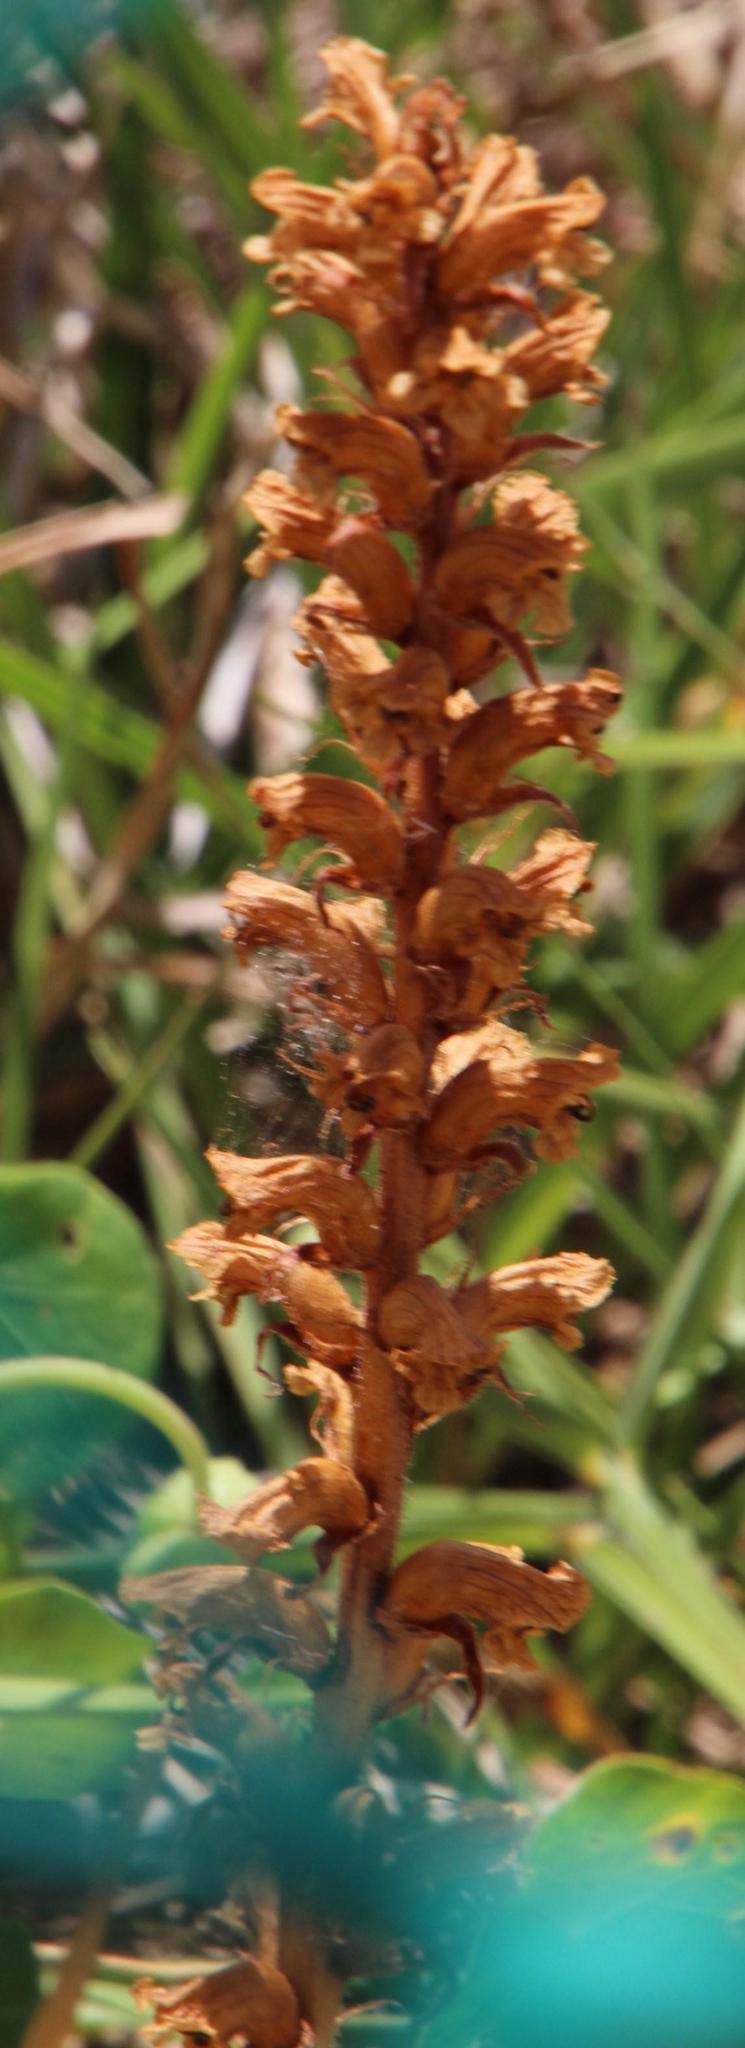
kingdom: Plantae
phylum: Tracheophyta
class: Magnoliopsida
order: Lamiales
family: Orobanchaceae
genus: Orobanche
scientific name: Orobanche minor
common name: Common broomrape
